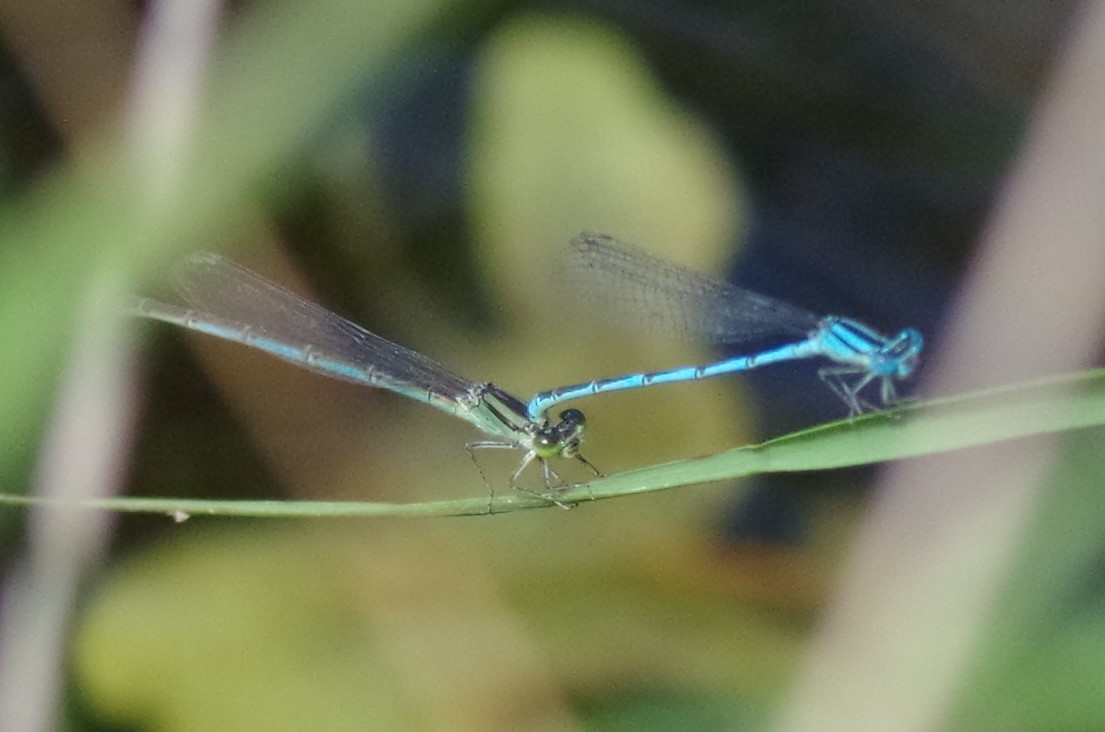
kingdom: Animalia
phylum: Arthropoda
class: Insecta
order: Odonata
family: Coenagrionidae
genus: Erythromma
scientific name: Erythromma lindenii
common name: Blue-eye
